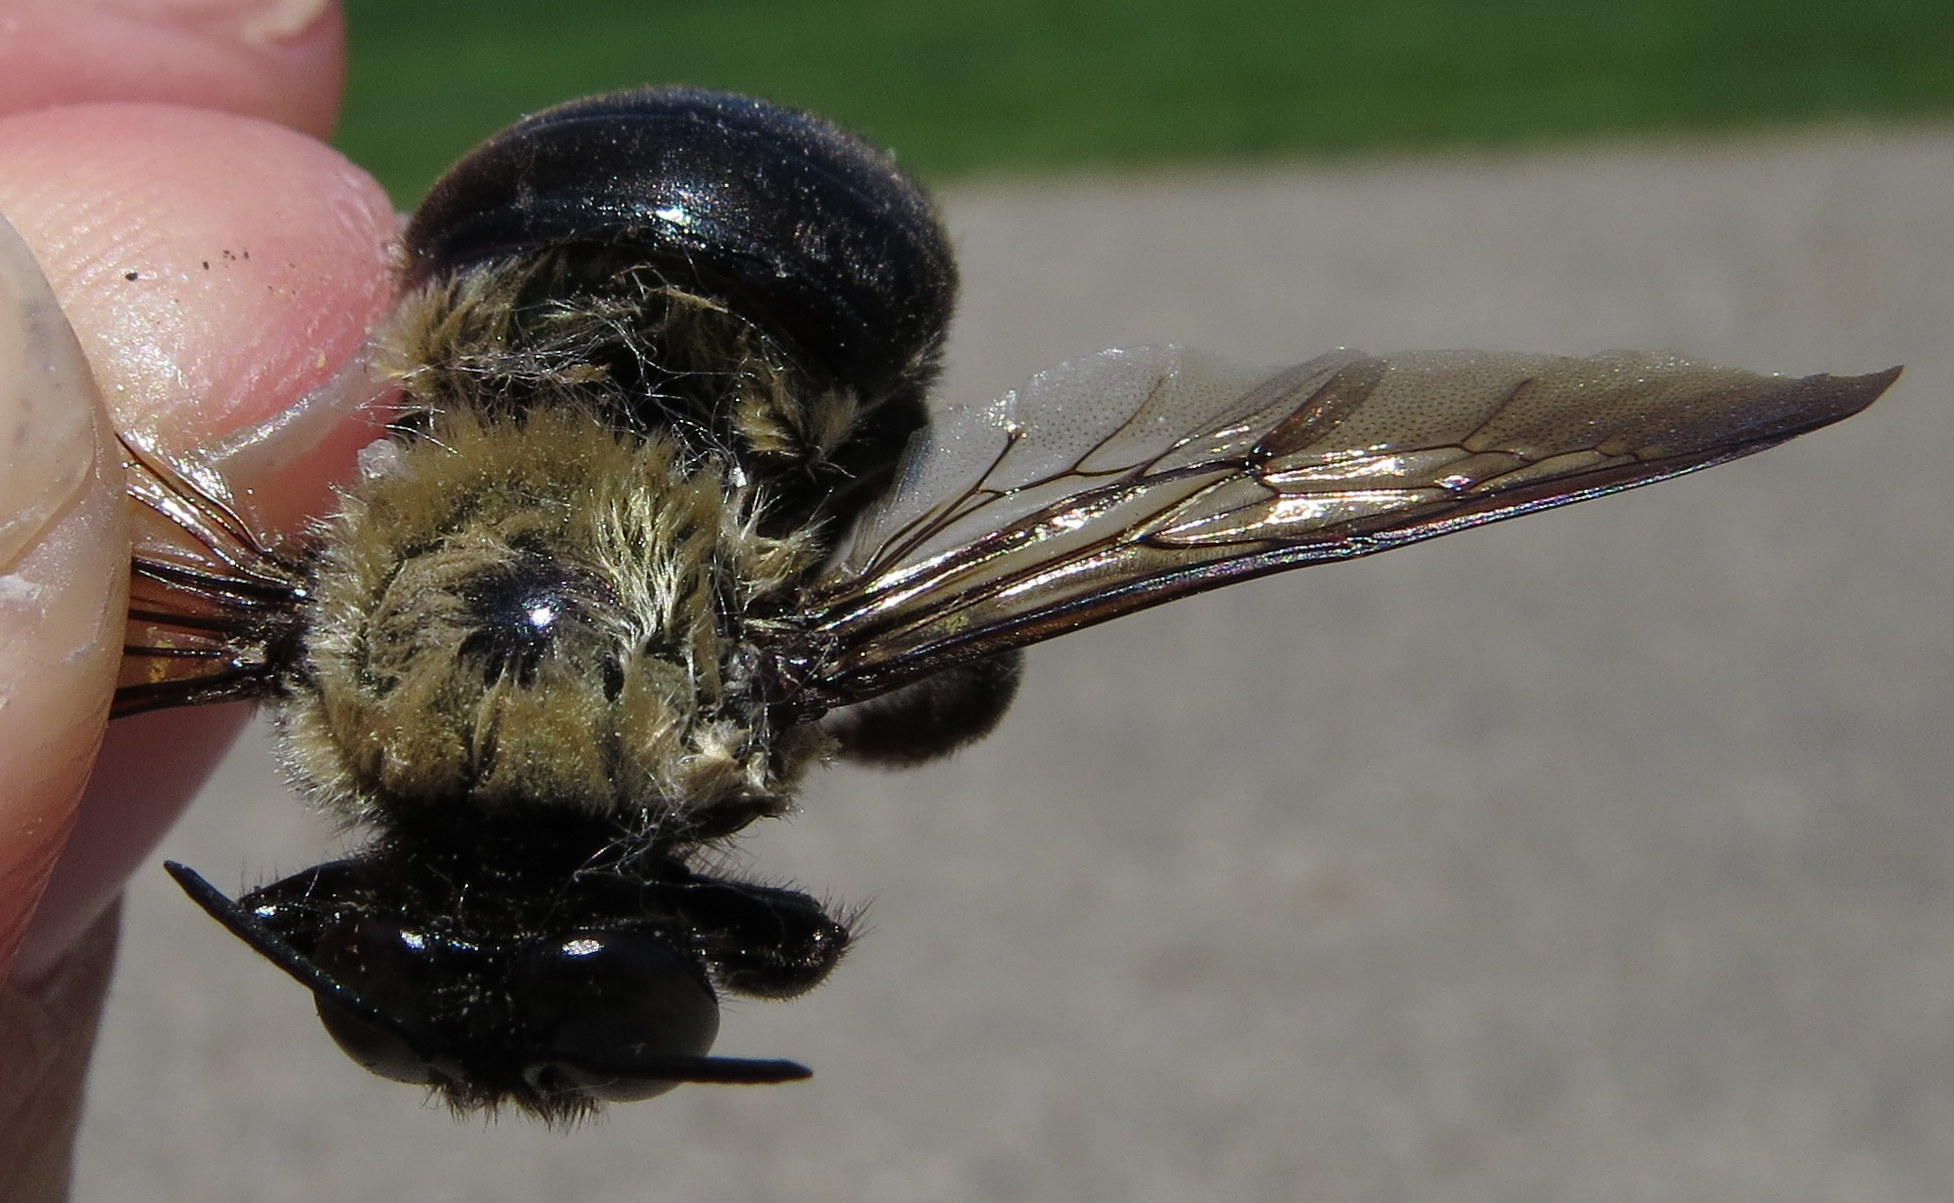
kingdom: Animalia
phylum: Arthropoda
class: Insecta
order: Hymenoptera
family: Apidae
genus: Xylocopa
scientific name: Xylocopa virginica
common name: Carpenter bee
